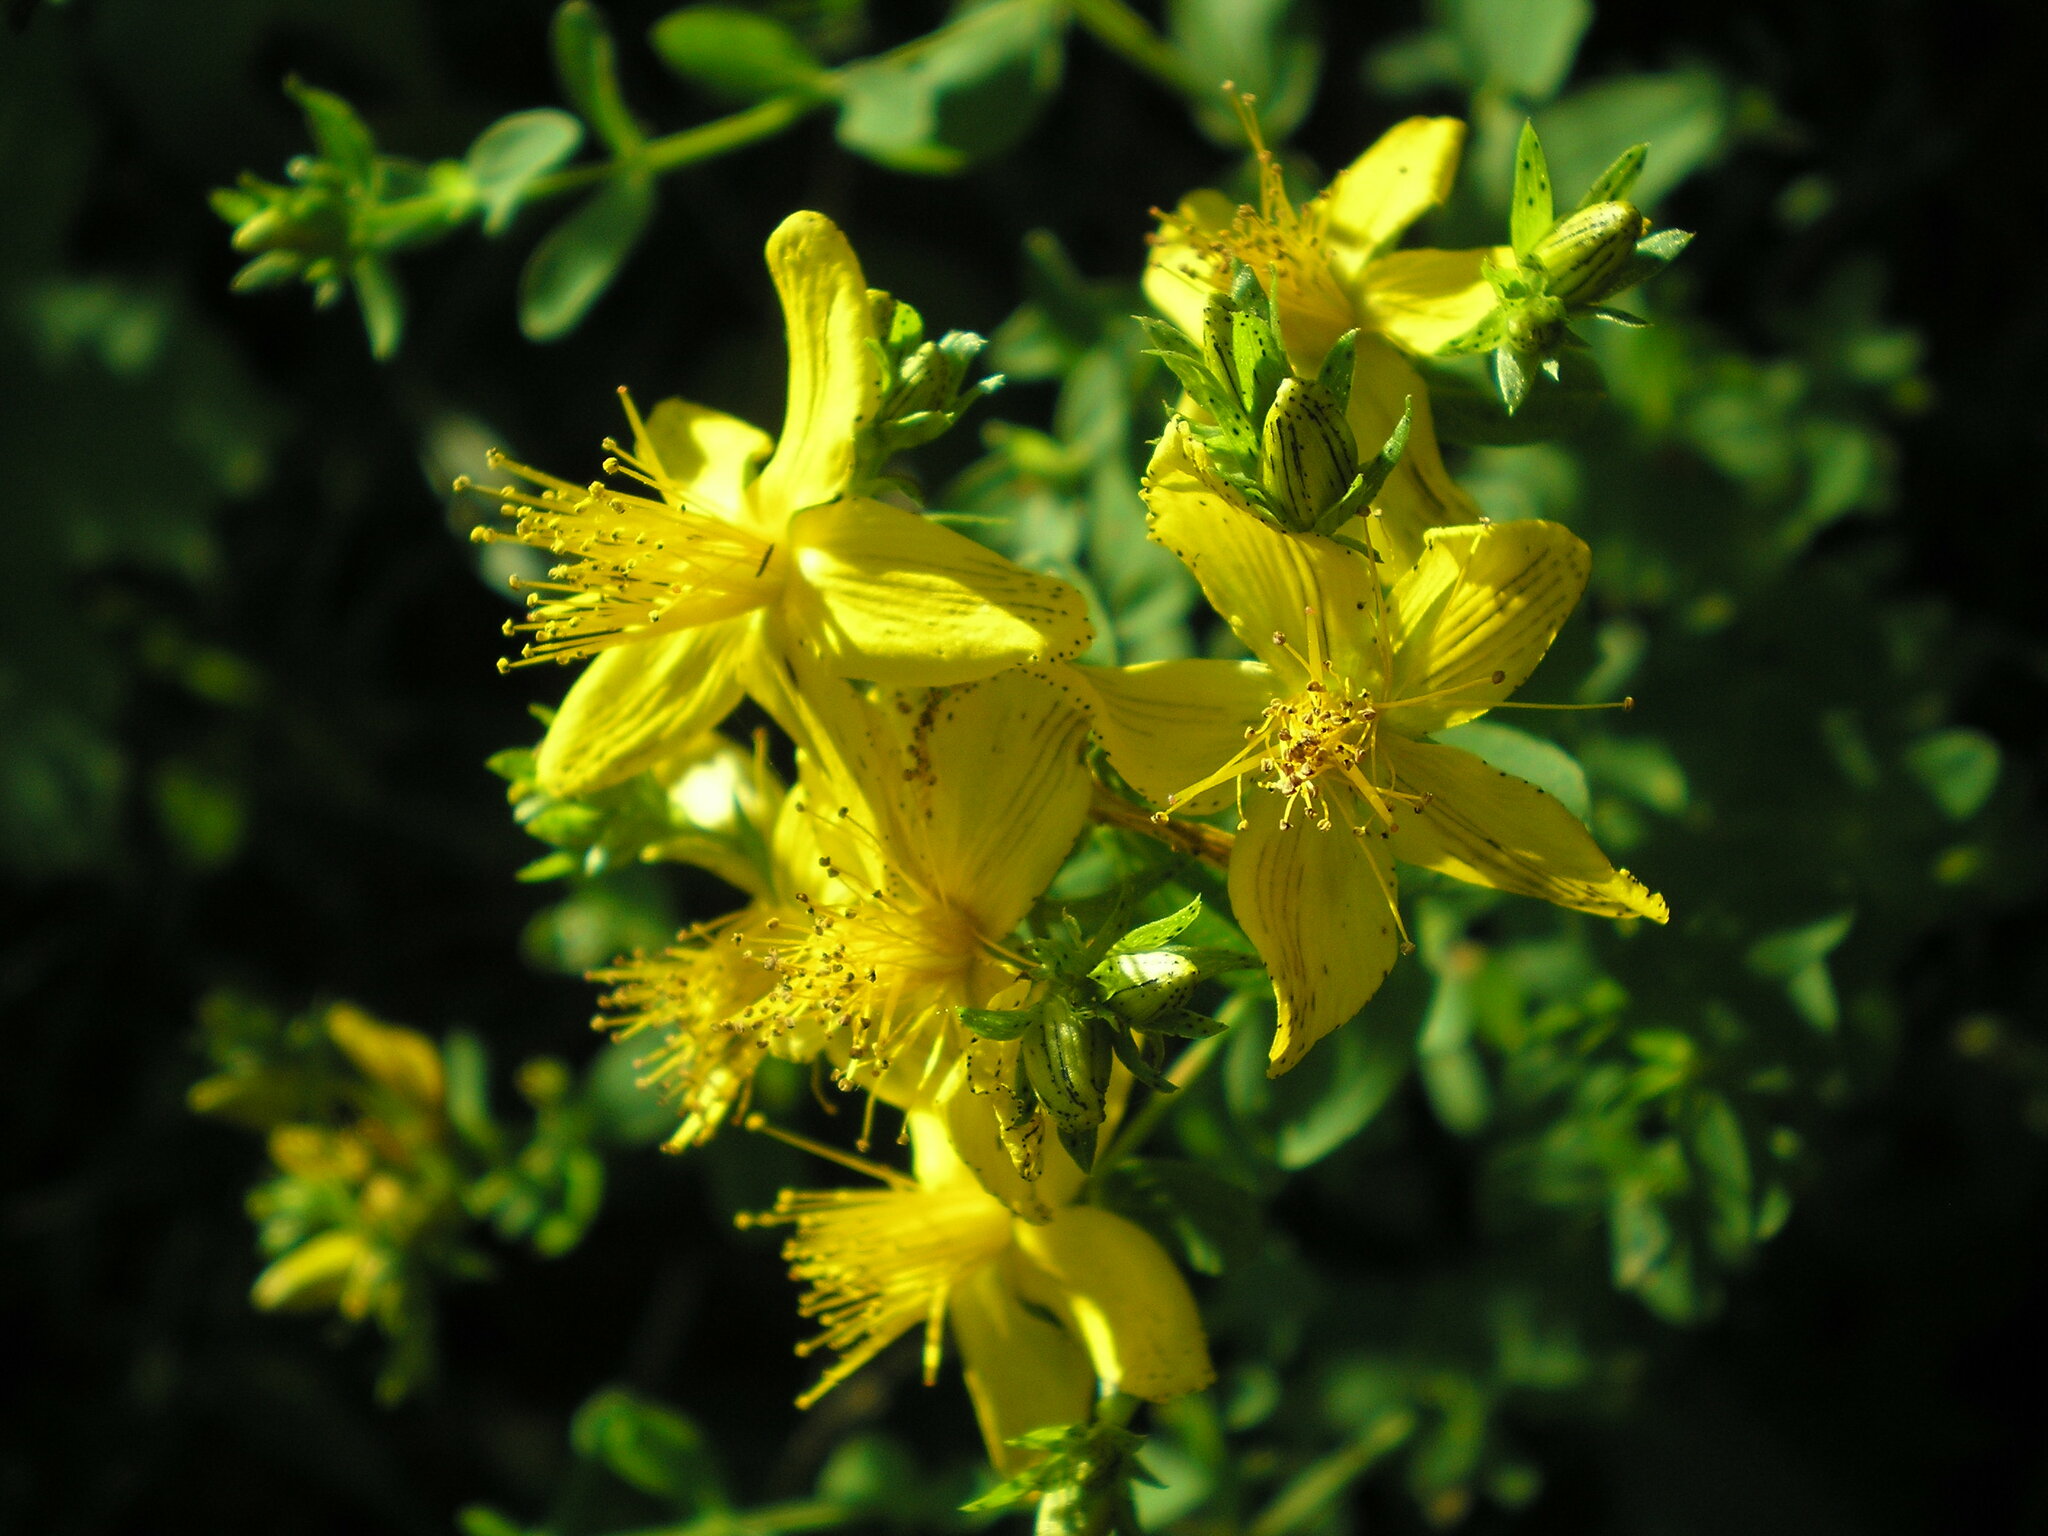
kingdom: Plantae
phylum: Tracheophyta
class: Magnoliopsida
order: Malpighiales
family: Hypericaceae
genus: Hypericum
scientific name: Hypericum perforatum
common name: Common st. johnswort
